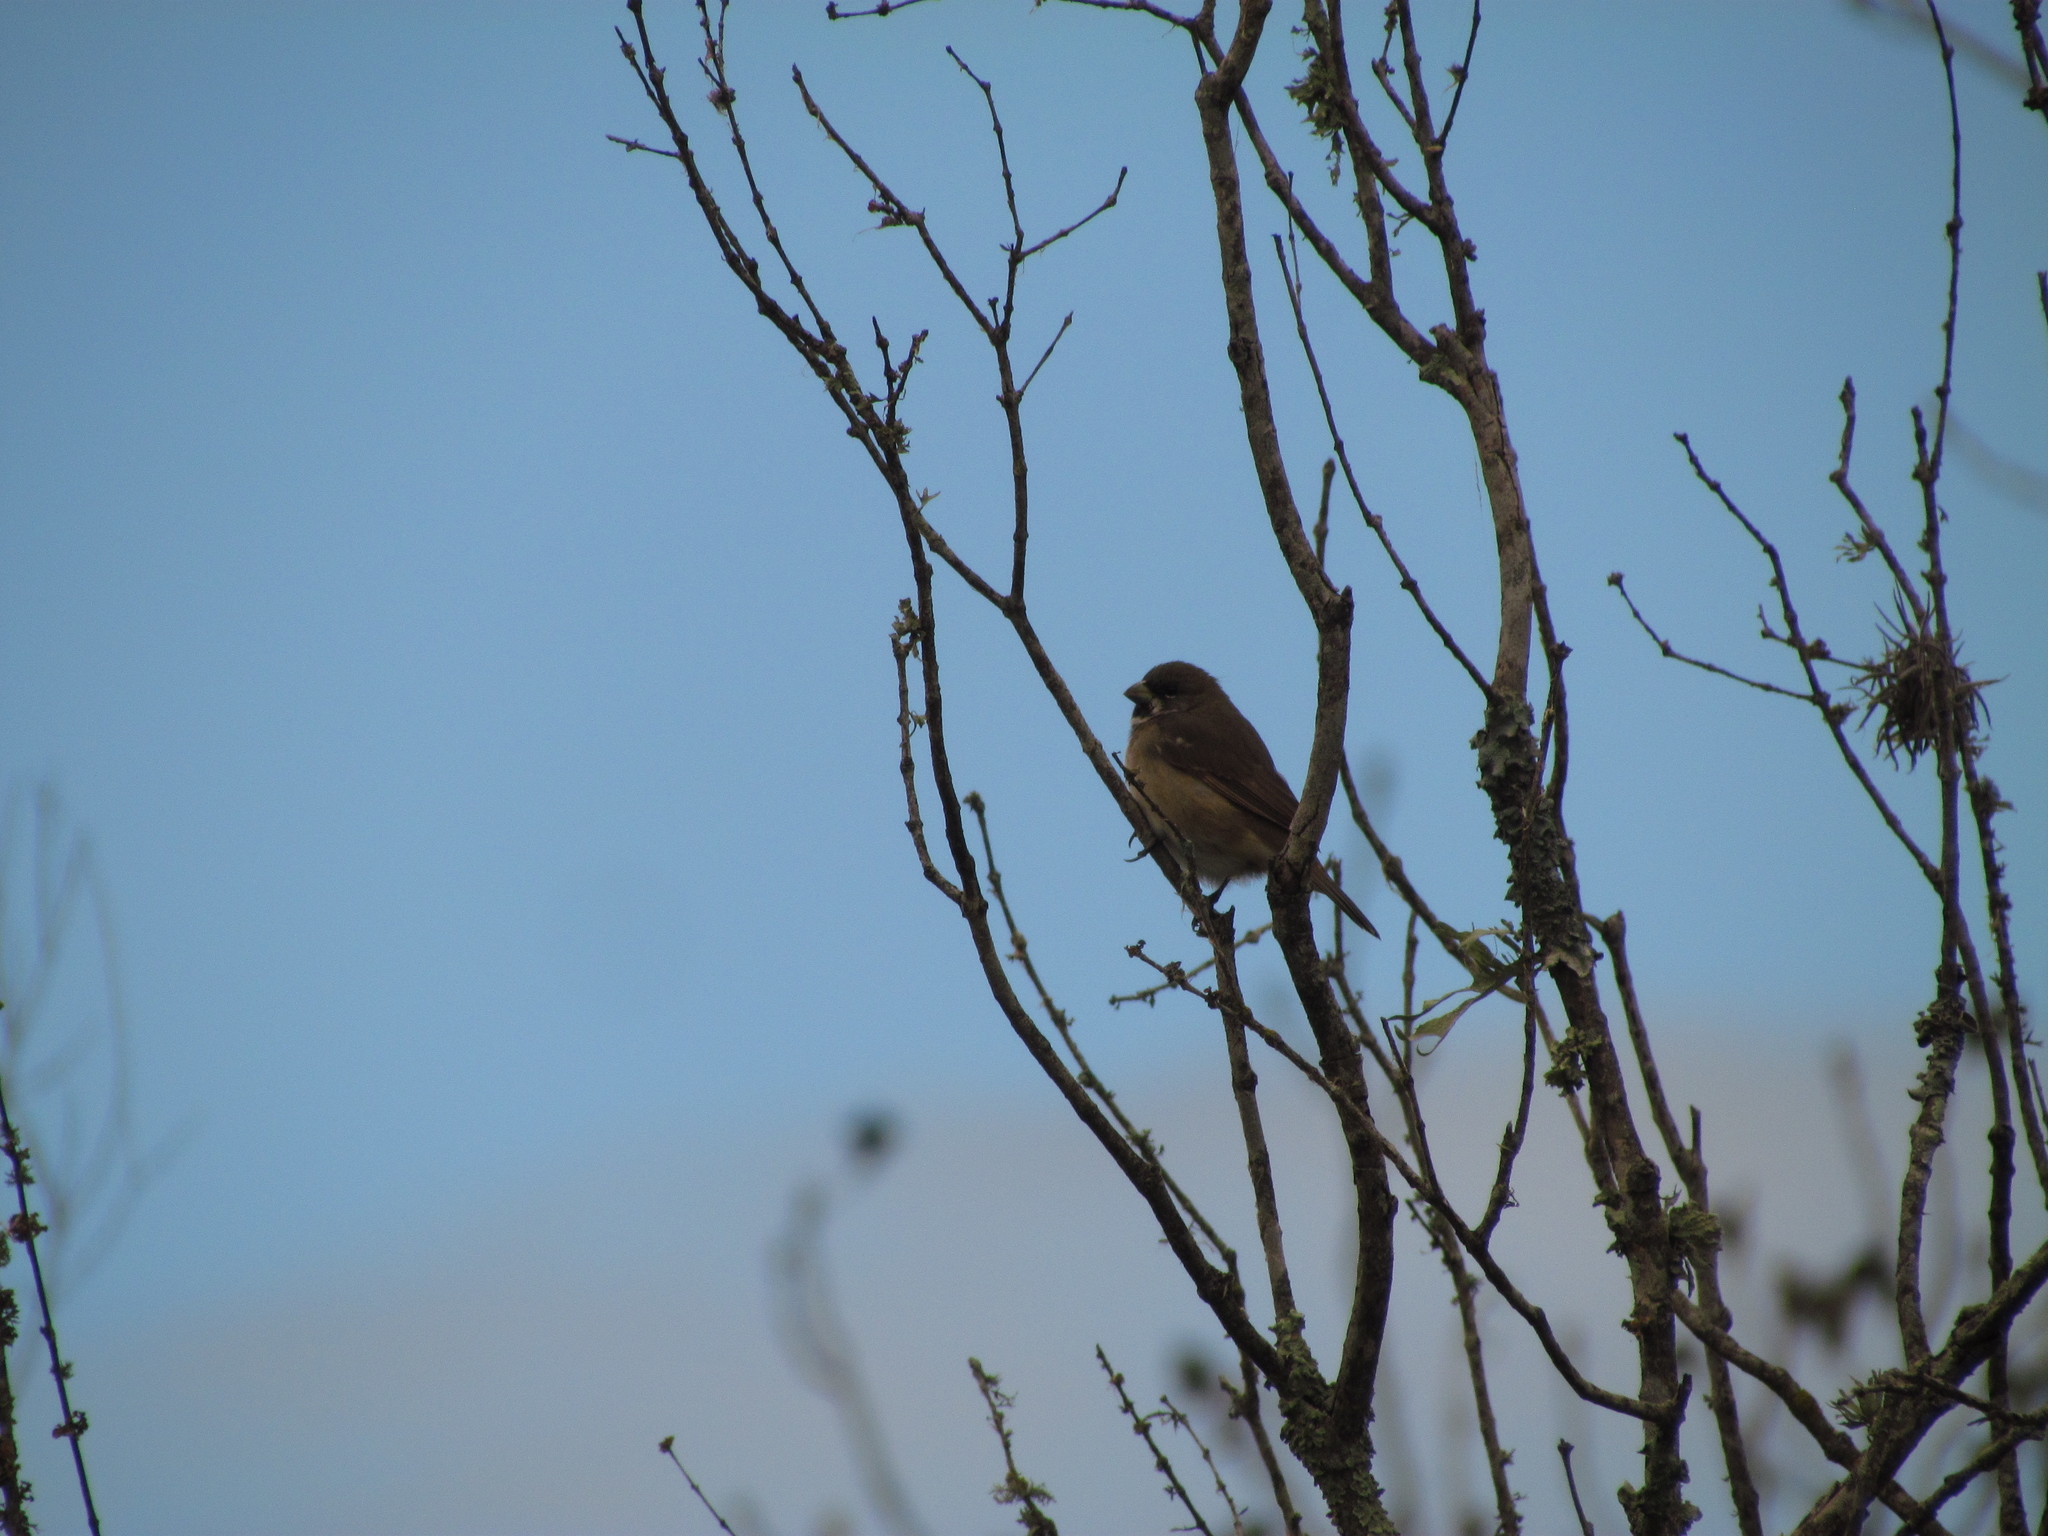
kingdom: Animalia
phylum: Chordata
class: Aves
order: Passeriformes
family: Thraupidae
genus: Sporophila
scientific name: Sporophila caerulescens
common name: Double-collared seedeater
